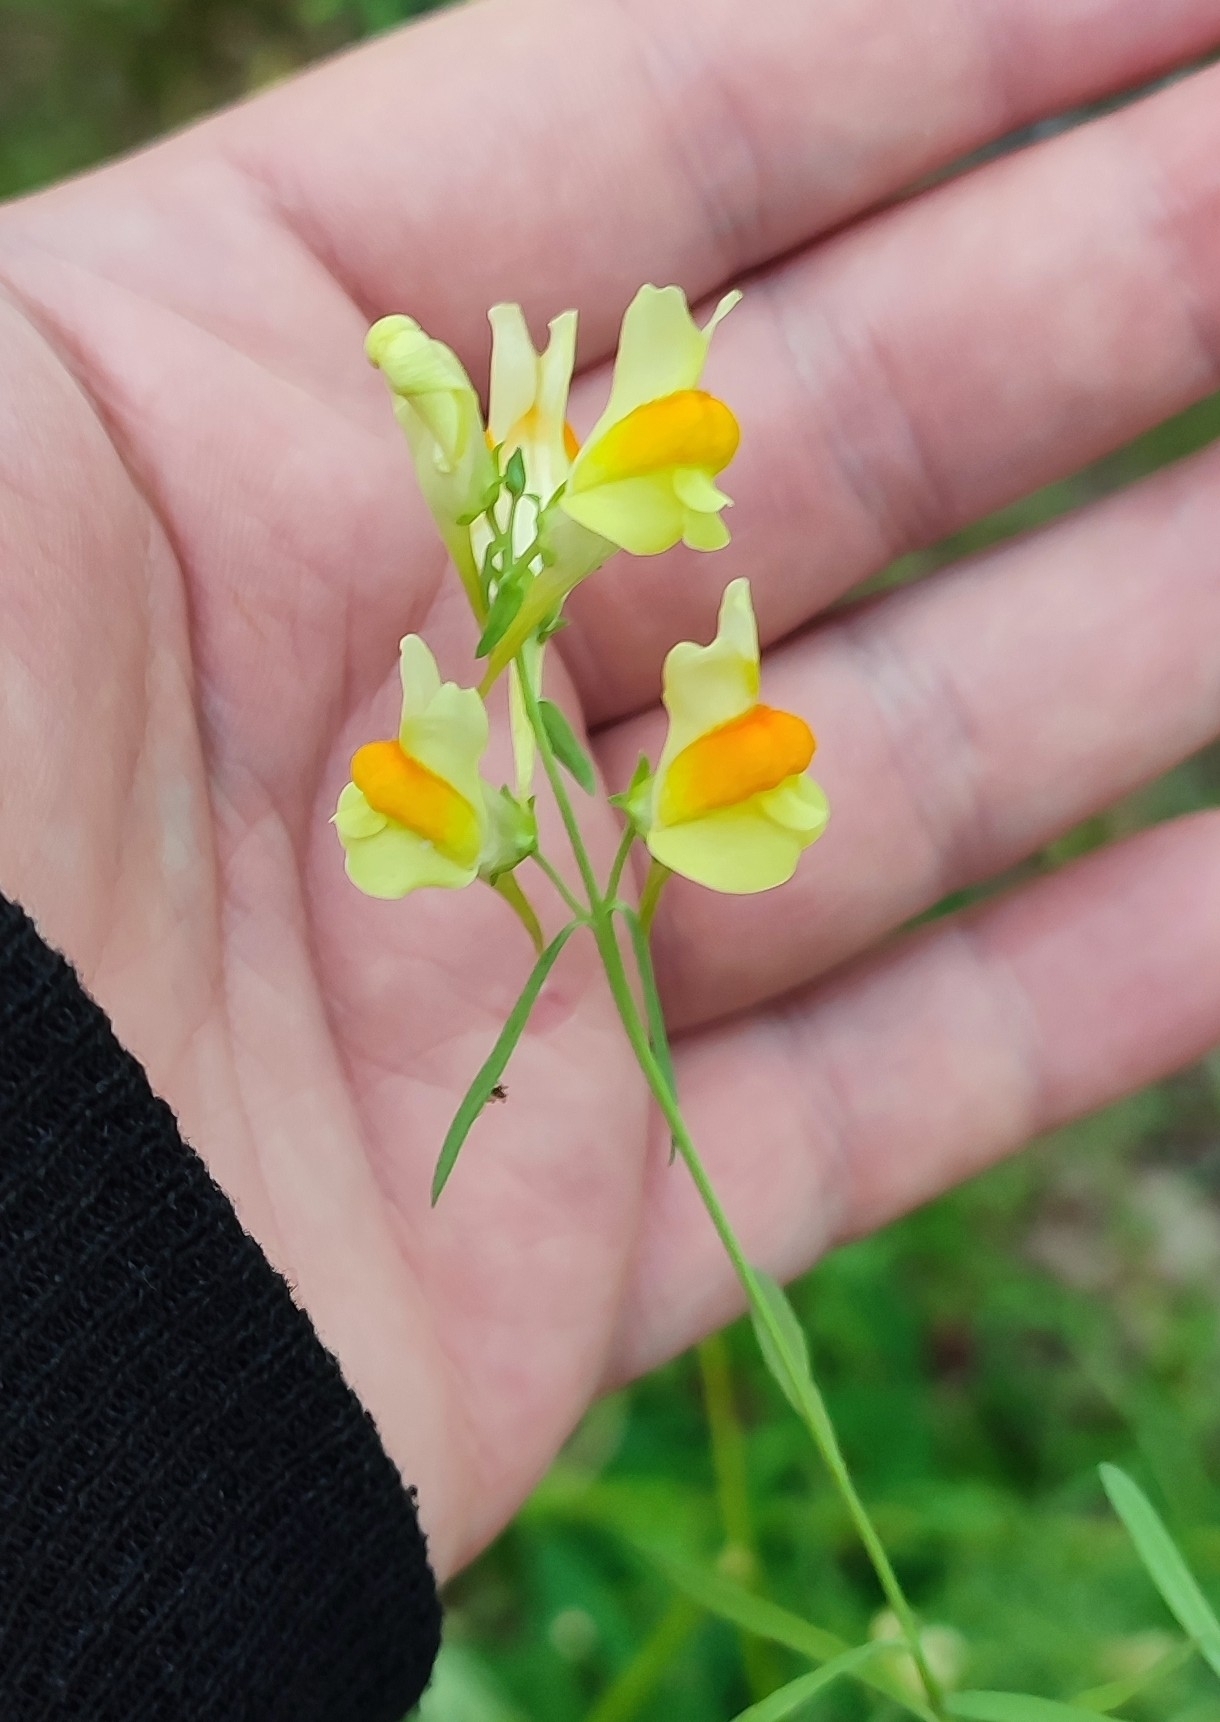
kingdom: Plantae
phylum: Tracheophyta
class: Magnoliopsida
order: Lamiales
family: Plantaginaceae
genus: Linaria
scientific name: Linaria vulgaris
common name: Butter and eggs
